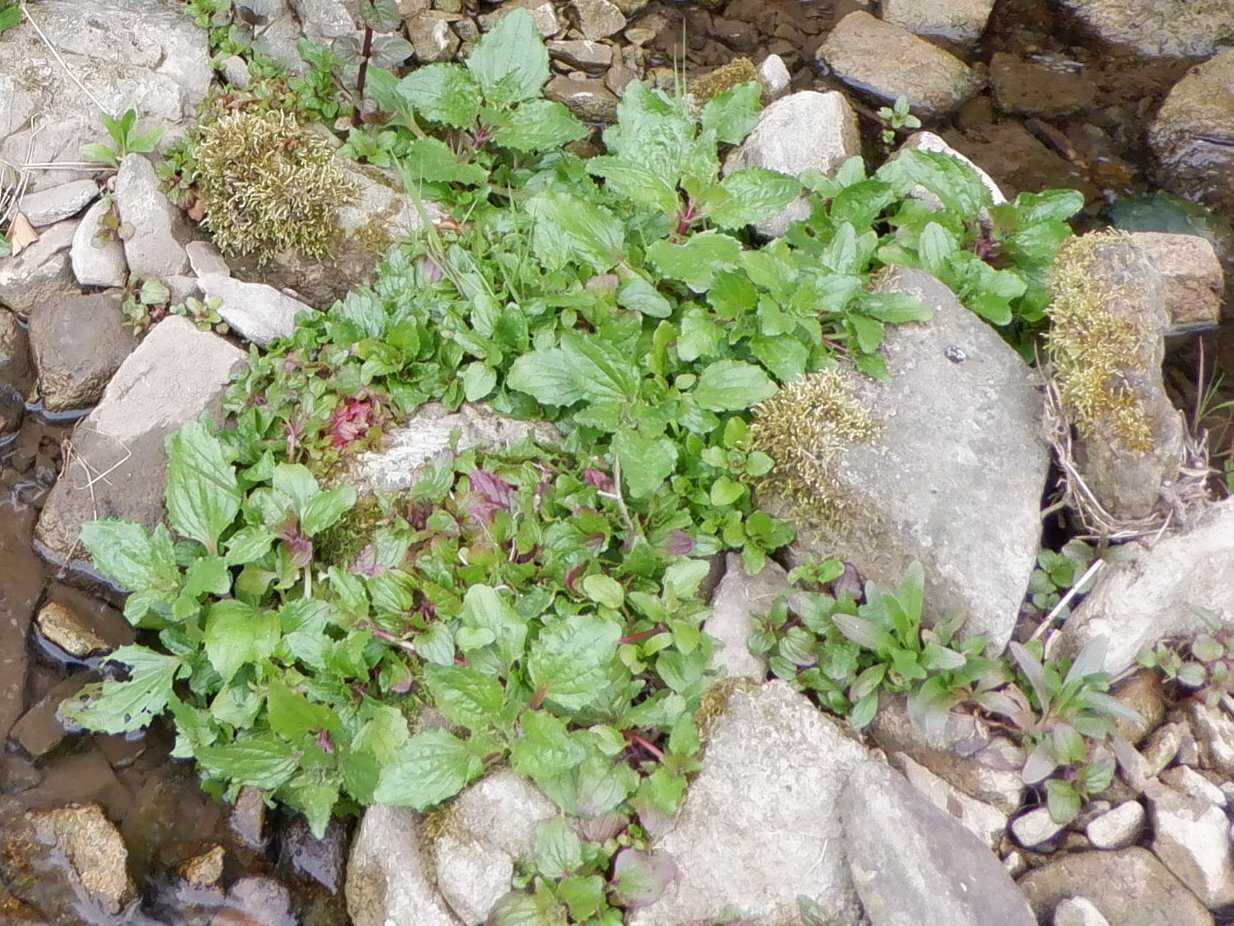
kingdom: Plantae
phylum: Tracheophyta
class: Magnoliopsida
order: Lamiales
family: Phrymaceae
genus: Erythranthe
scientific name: Erythranthe guttata
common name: Monkeyflower
